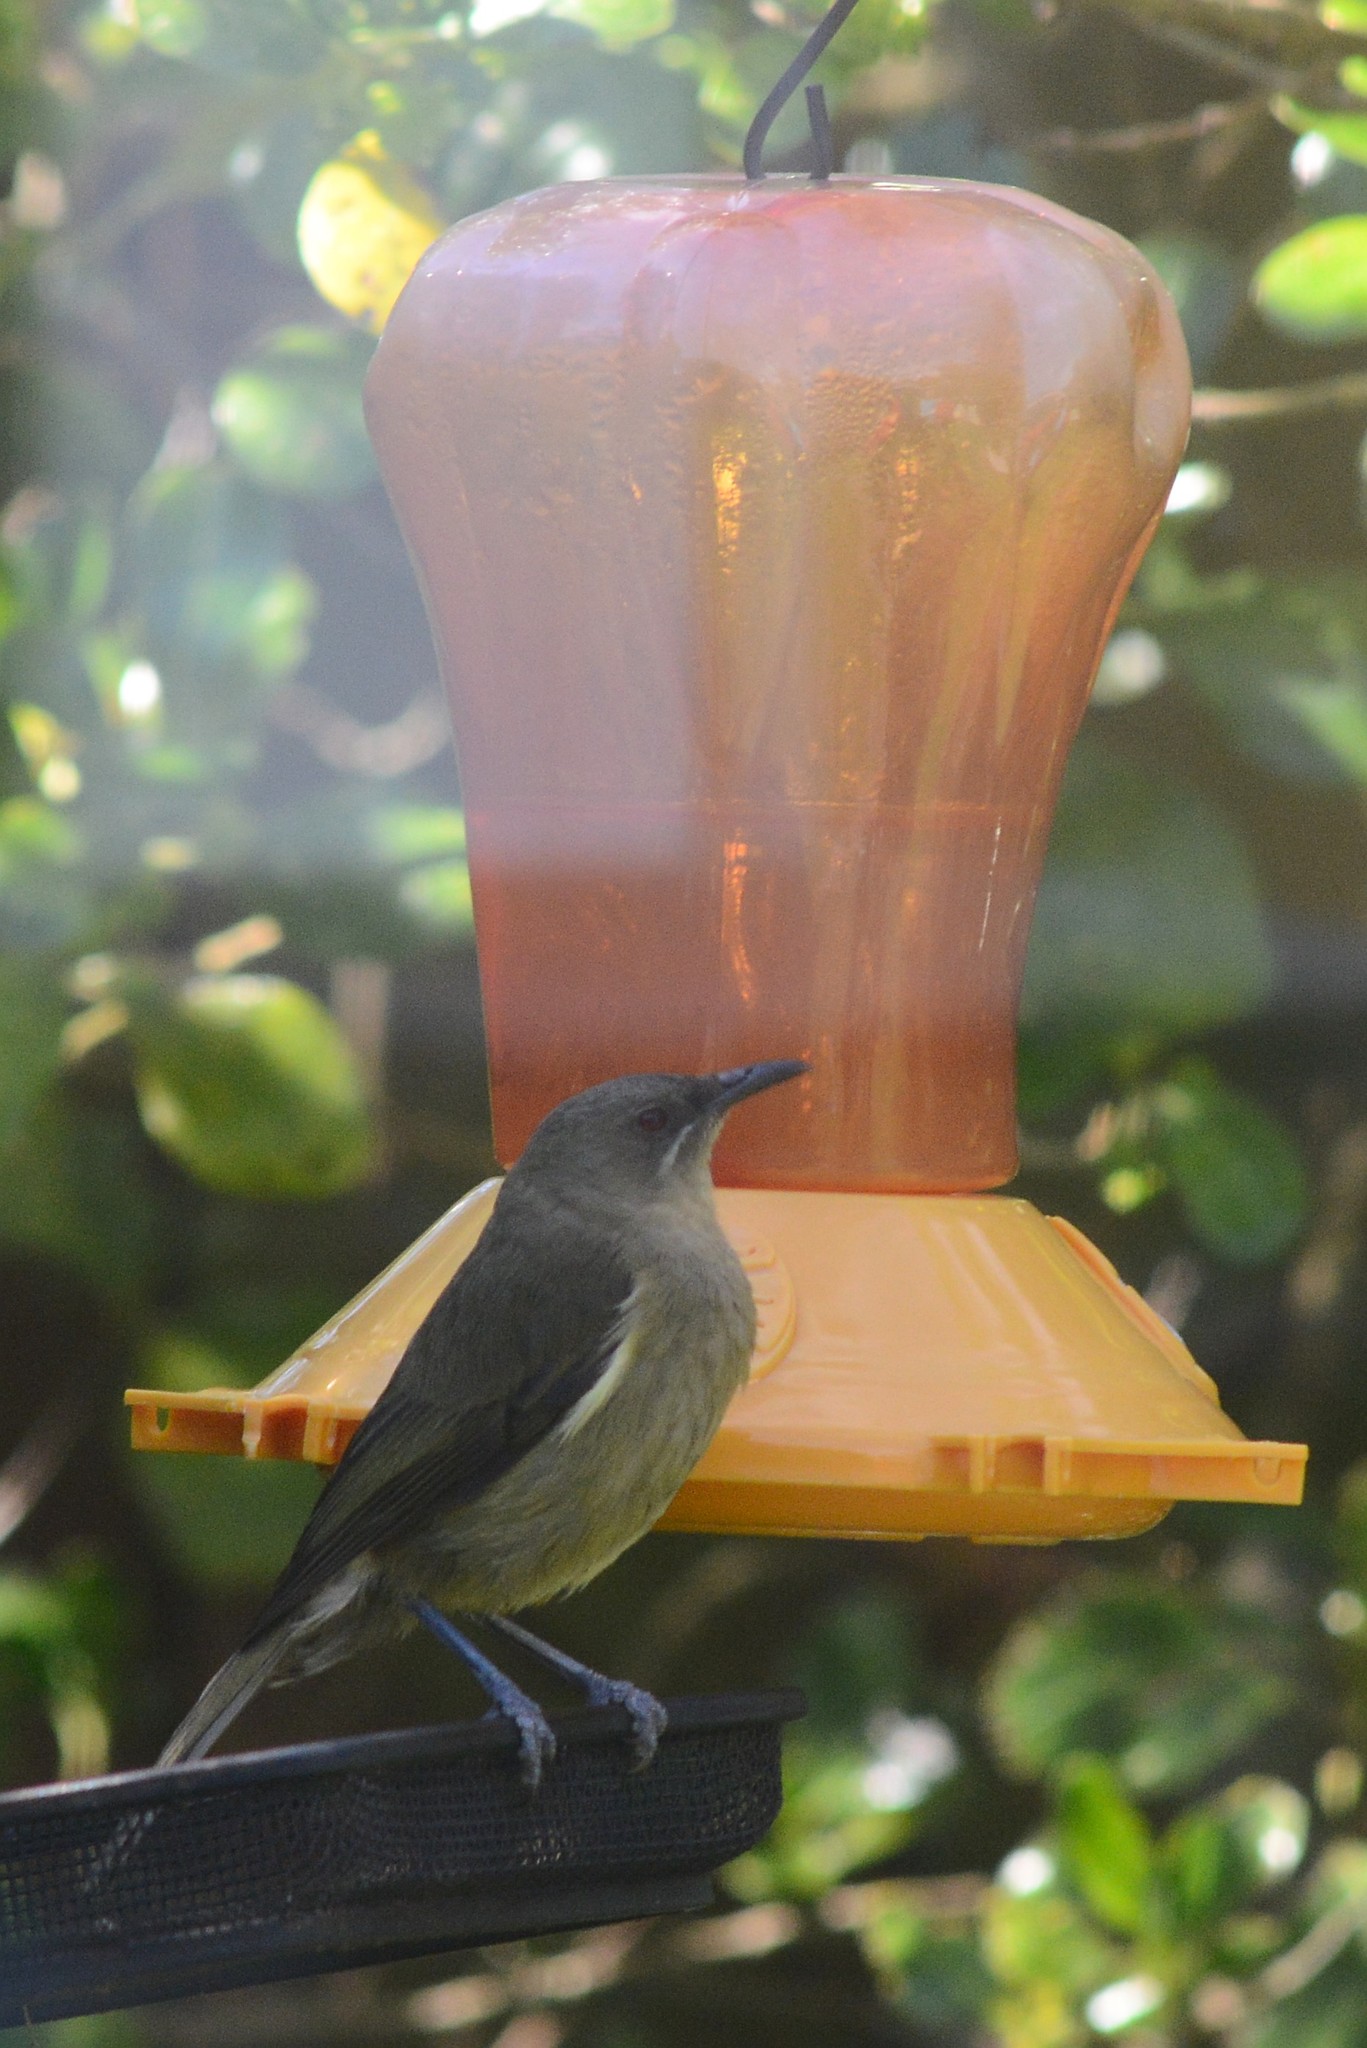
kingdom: Animalia
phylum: Chordata
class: Aves
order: Passeriformes
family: Meliphagidae
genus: Anthornis
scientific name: Anthornis melanura
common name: New zealand bellbird
